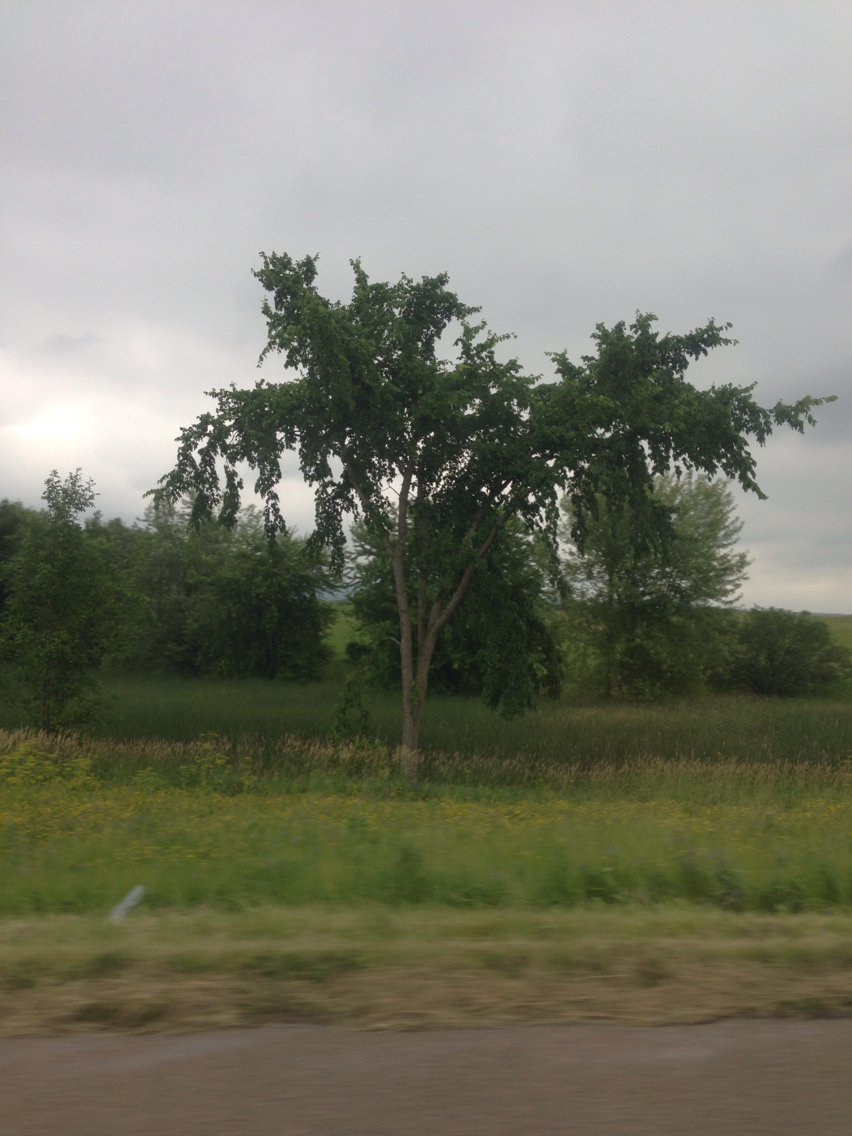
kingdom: Plantae
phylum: Tracheophyta
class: Magnoliopsida
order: Rosales
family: Ulmaceae
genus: Ulmus
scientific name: Ulmus americana
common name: American elm
